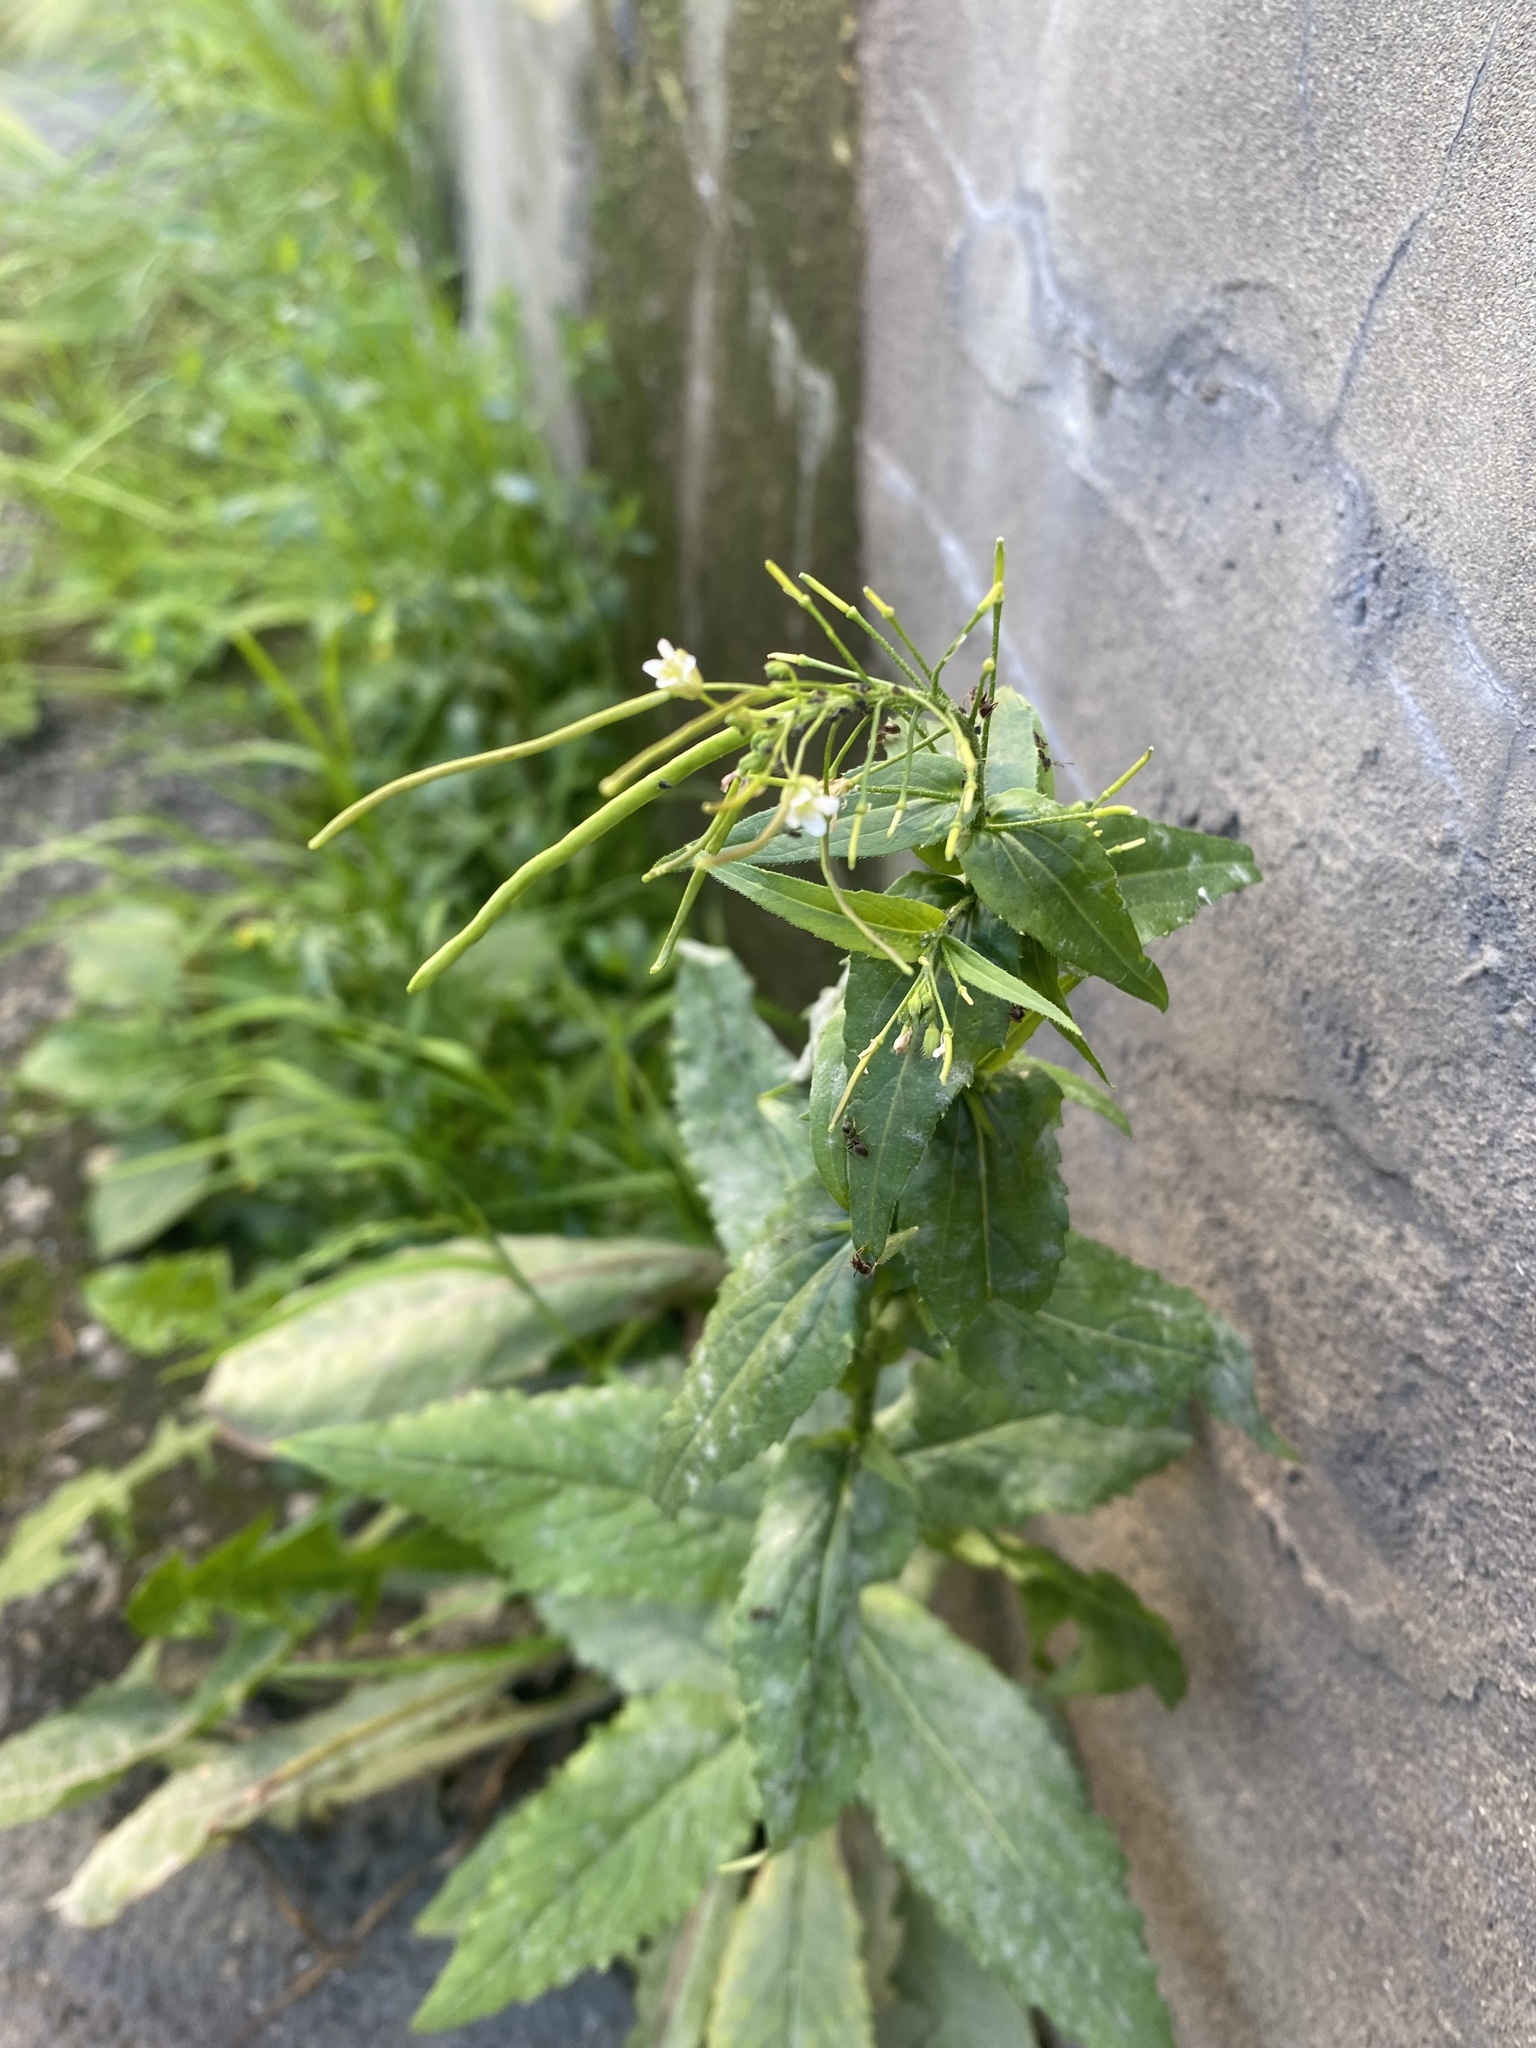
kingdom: Plantae
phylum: Tracheophyta
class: Magnoliopsida
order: Brassicales
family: Brassicaceae
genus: Catolobus
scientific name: Catolobus pendulus
